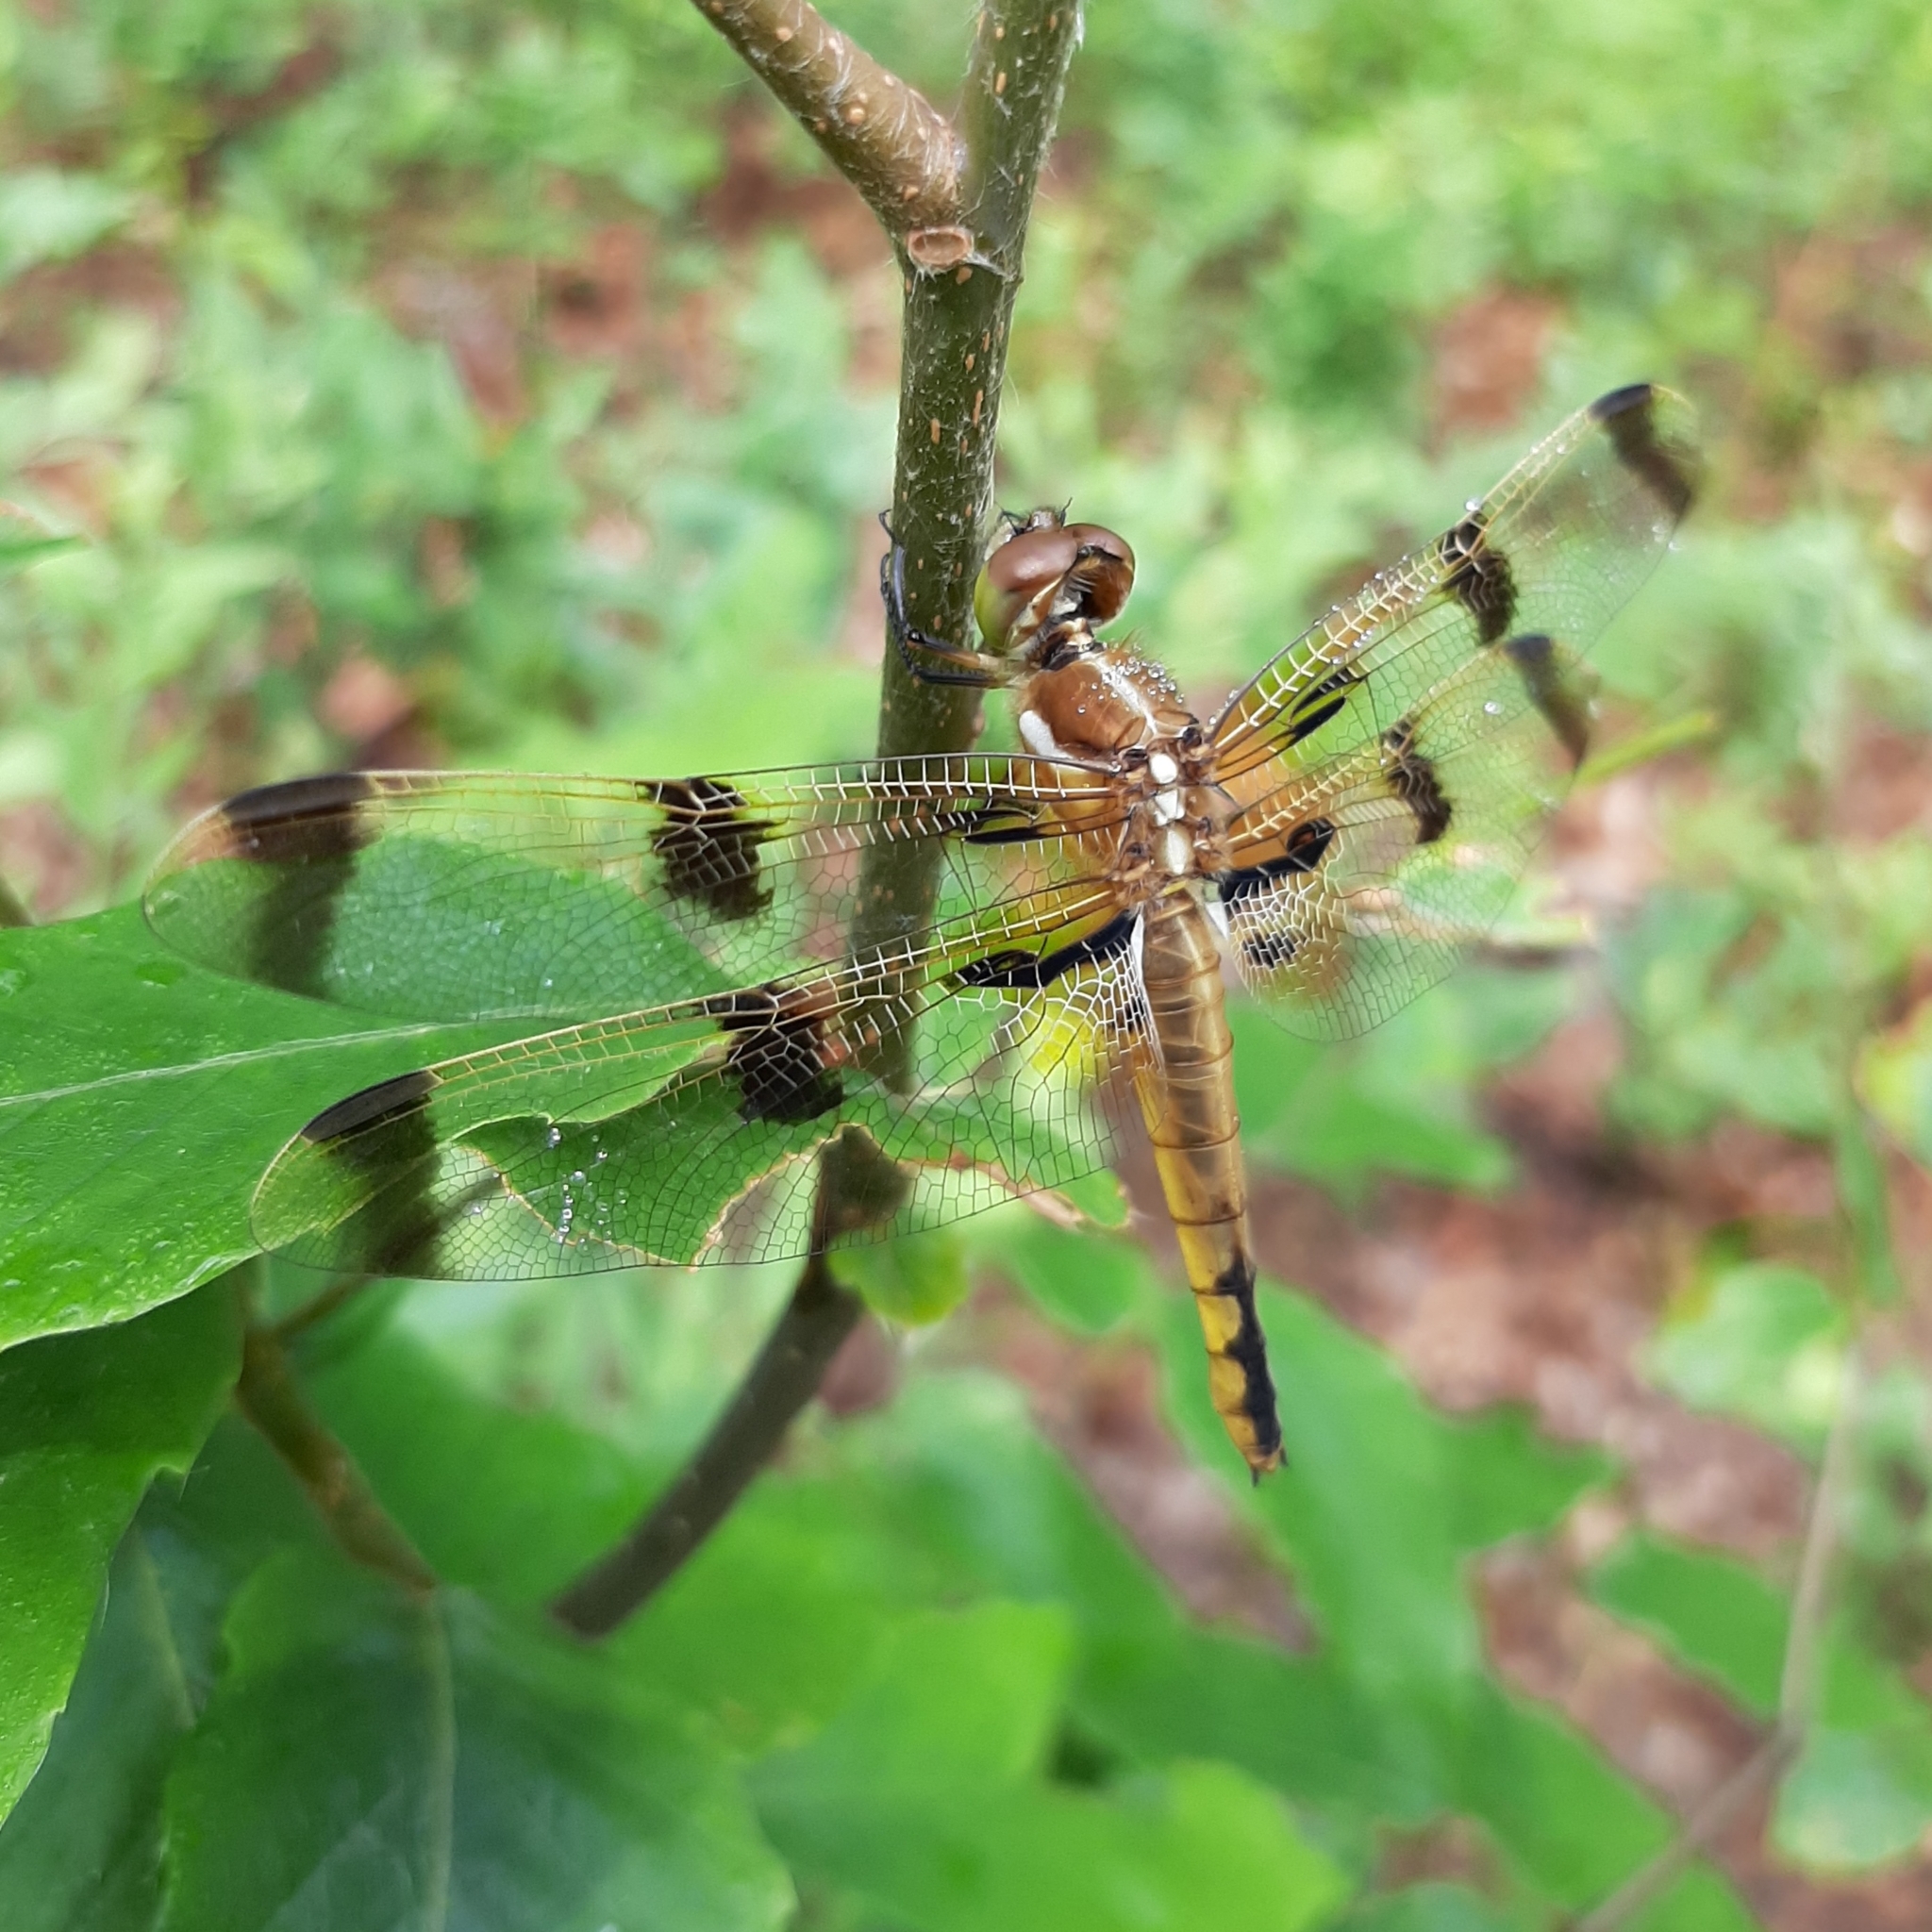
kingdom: Animalia
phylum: Arthropoda
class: Insecta
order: Odonata
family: Libellulidae
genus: Libellula
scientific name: Libellula semifasciata
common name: Painted skimmer
